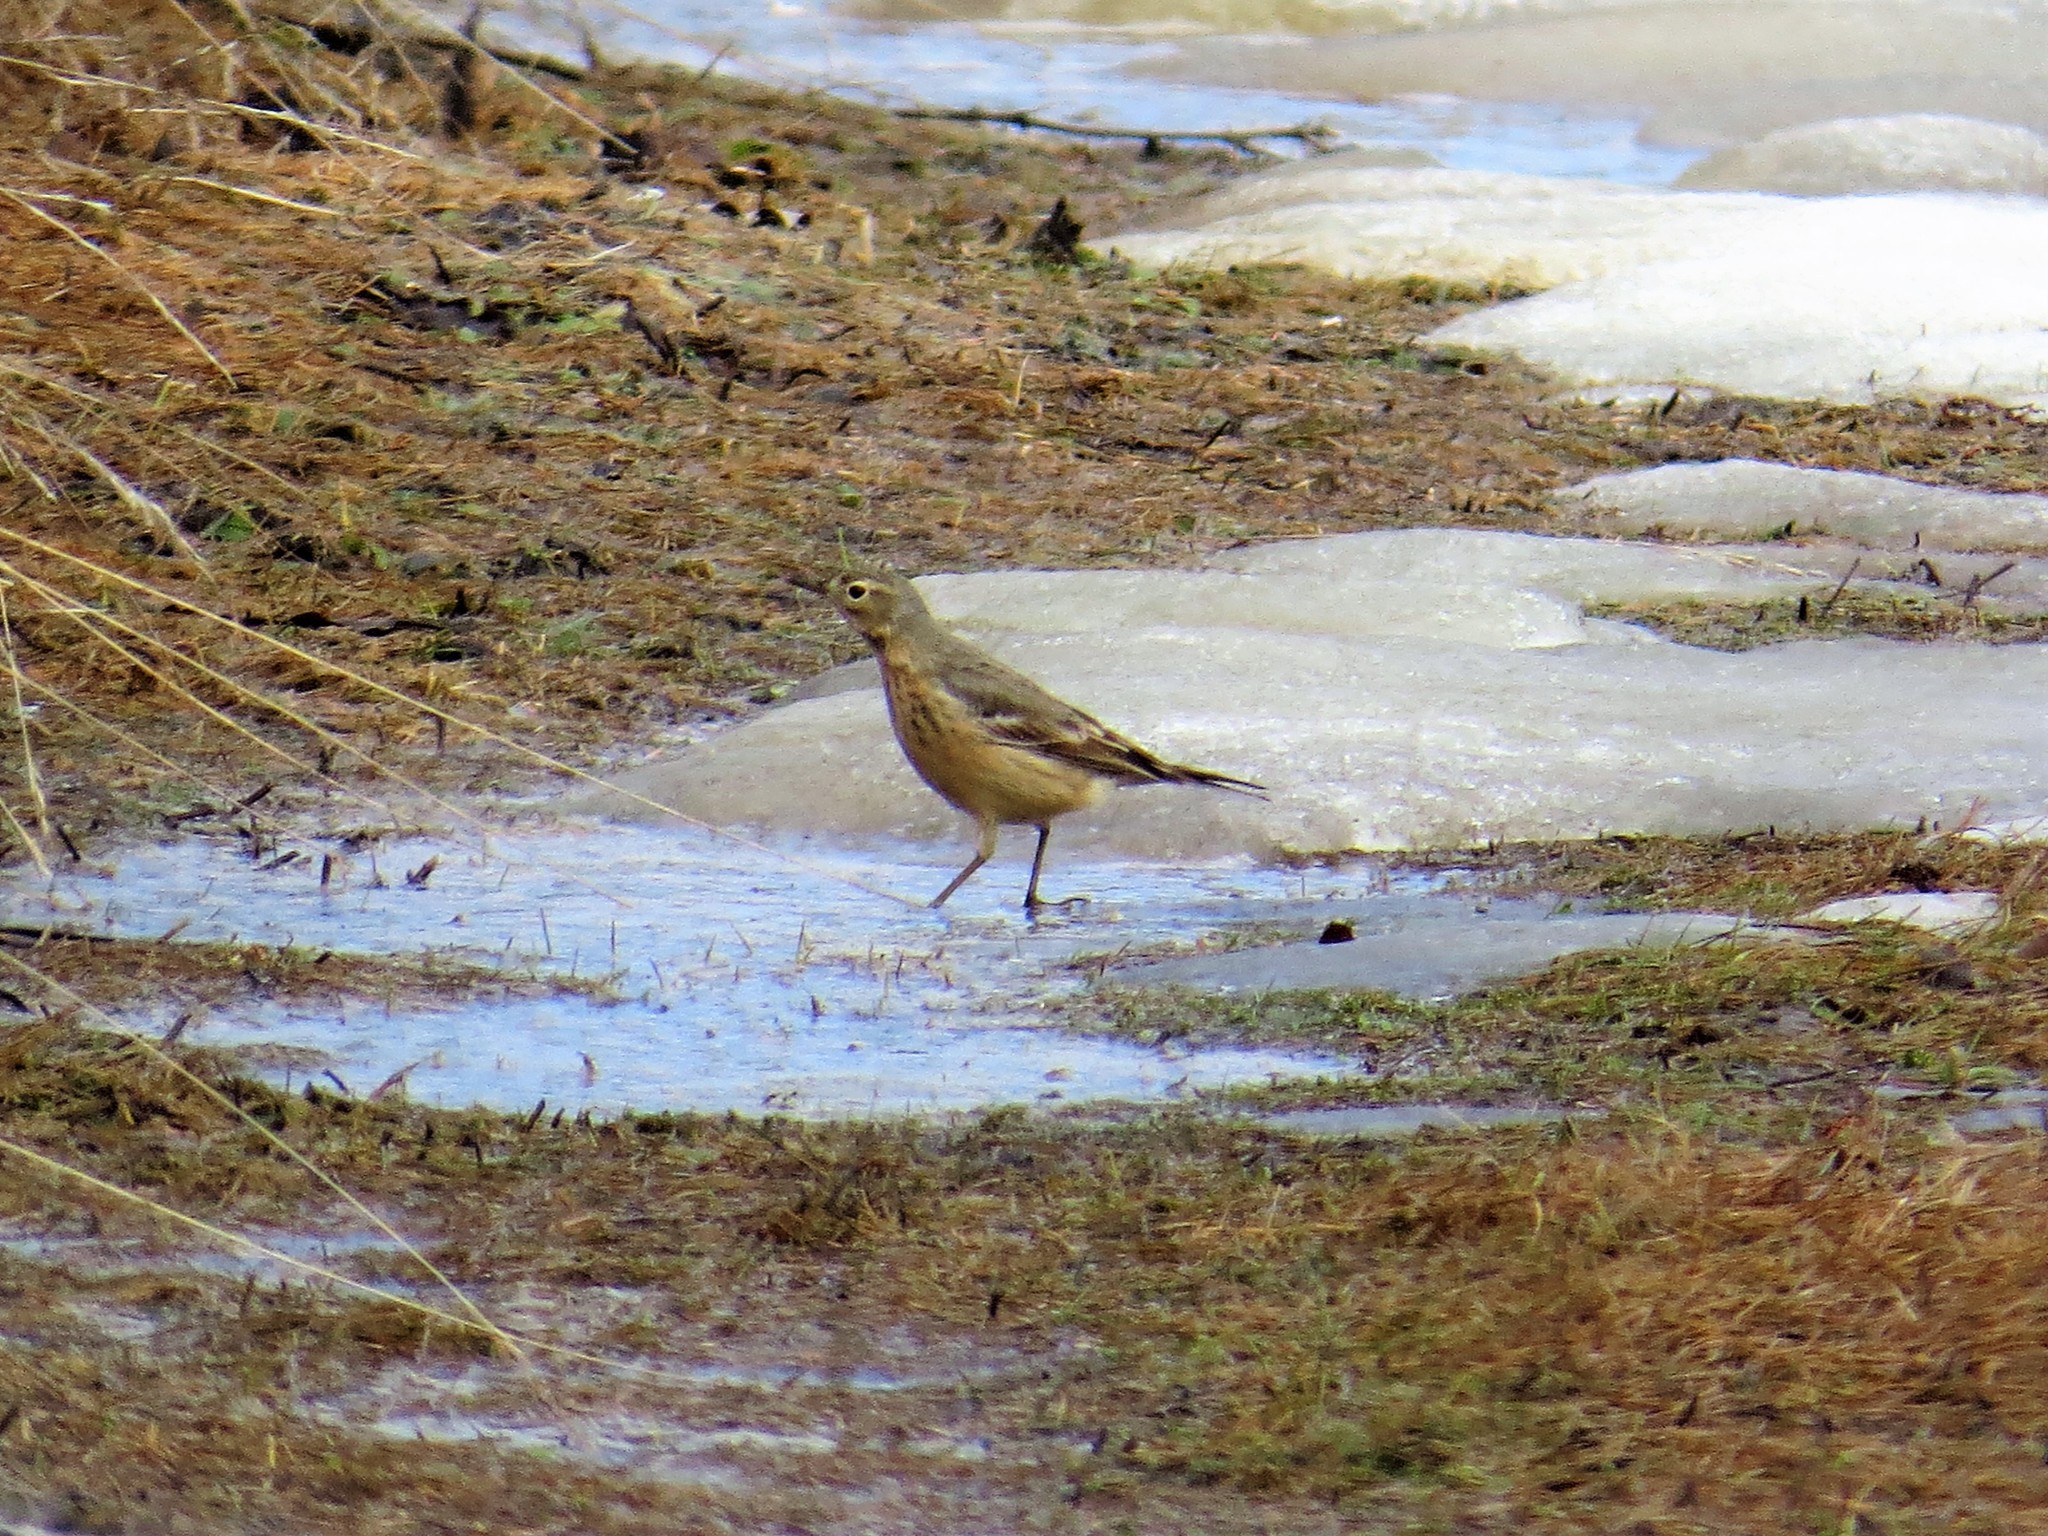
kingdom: Animalia
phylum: Chordata
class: Aves
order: Passeriformes
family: Motacillidae
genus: Anthus
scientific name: Anthus rubescens
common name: Buff-bellied pipit
